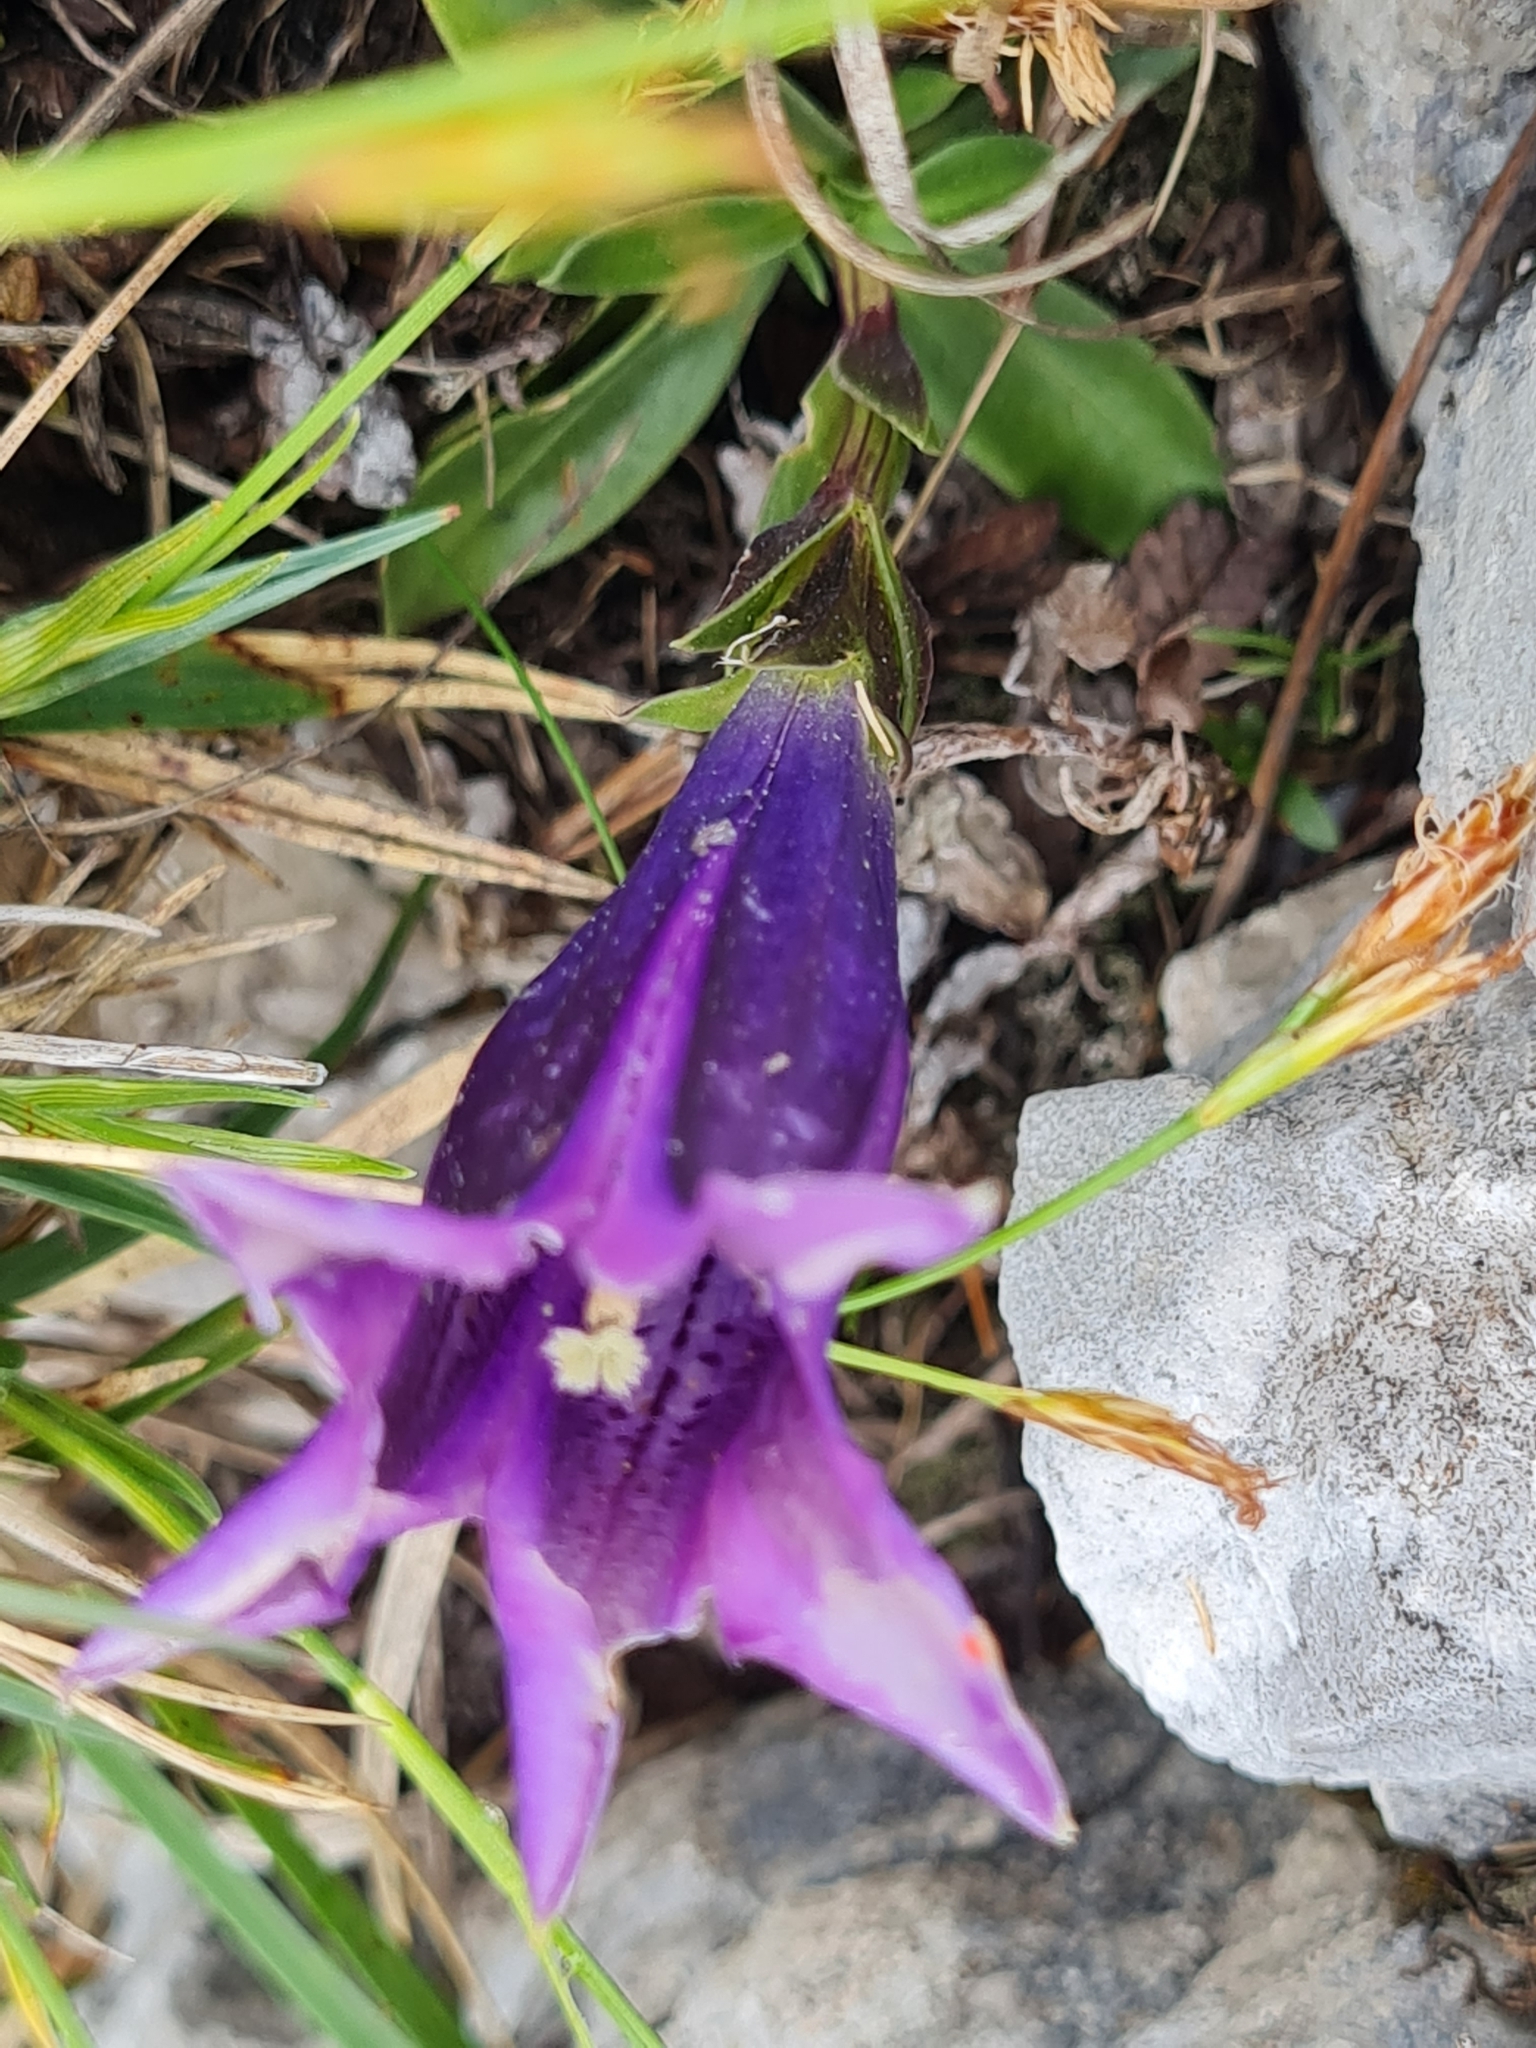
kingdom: Plantae
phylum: Tracheophyta
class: Magnoliopsida
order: Gentianales
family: Gentianaceae
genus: Gentiana
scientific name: Gentiana clusii
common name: Trumpet gentian
